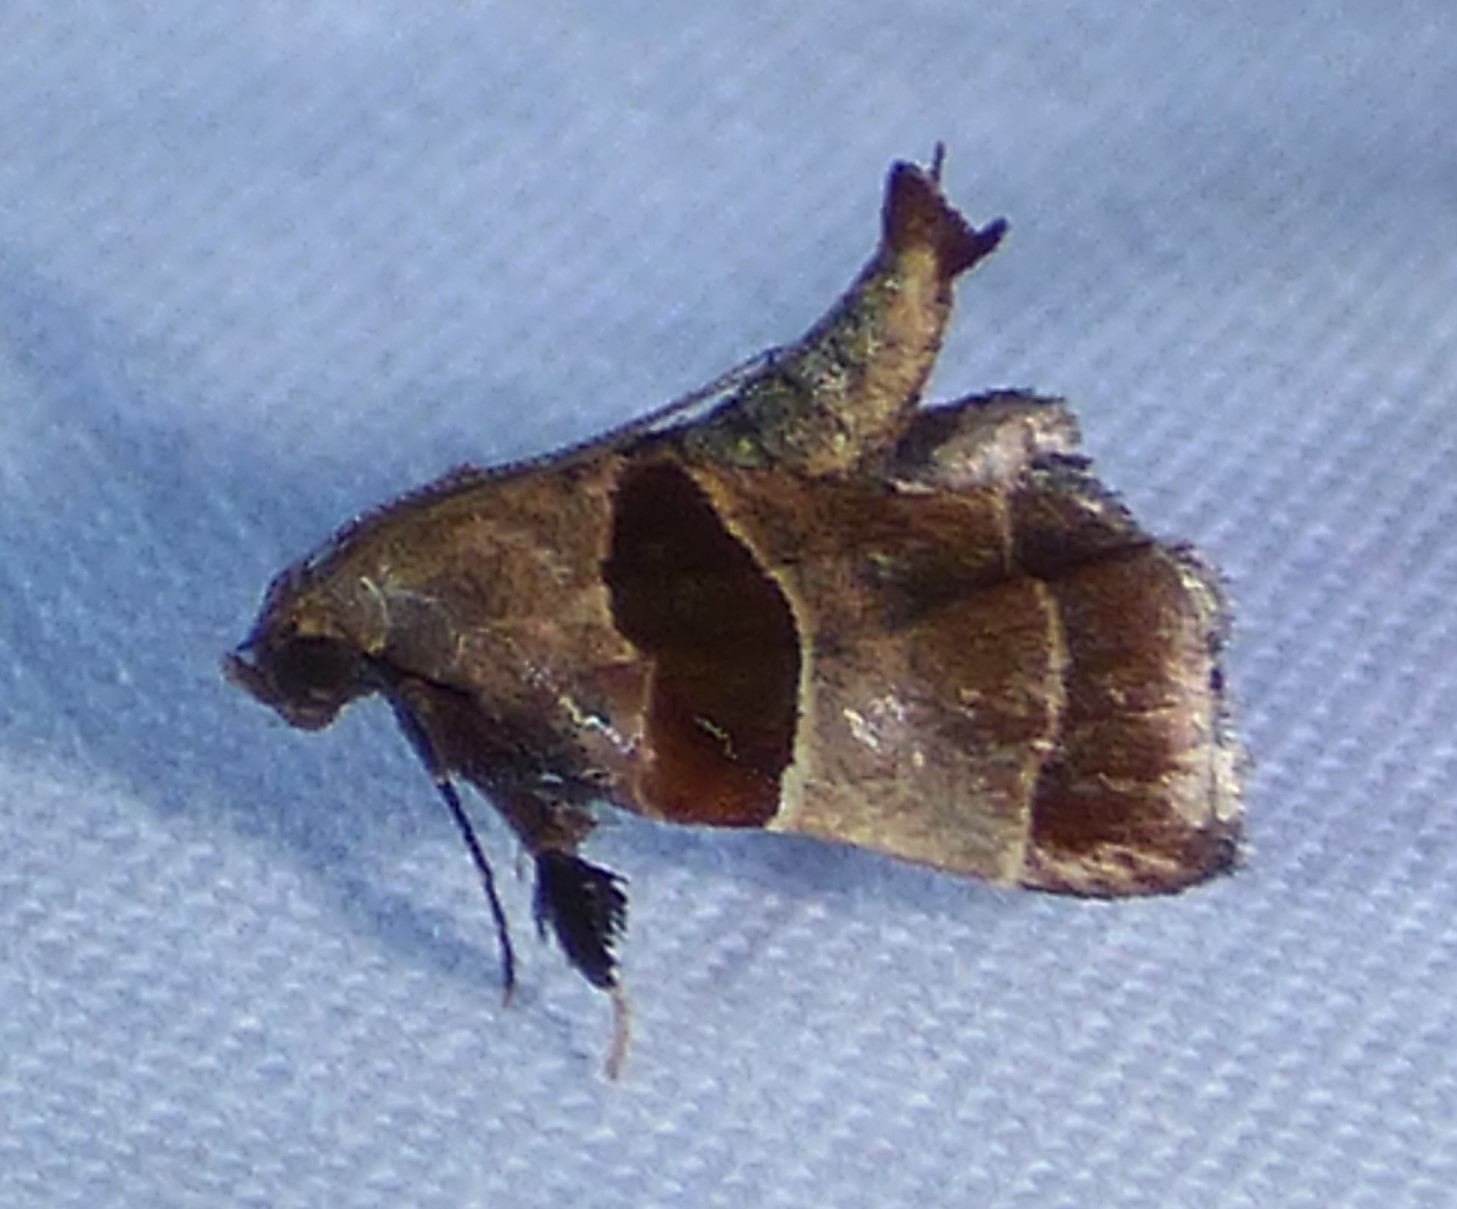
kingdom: Animalia
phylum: Arthropoda
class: Insecta
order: Lepidoptera
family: Pyralidae
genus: Tosale
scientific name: Tosale oviplagalis
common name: Dimorphic tosale moth
